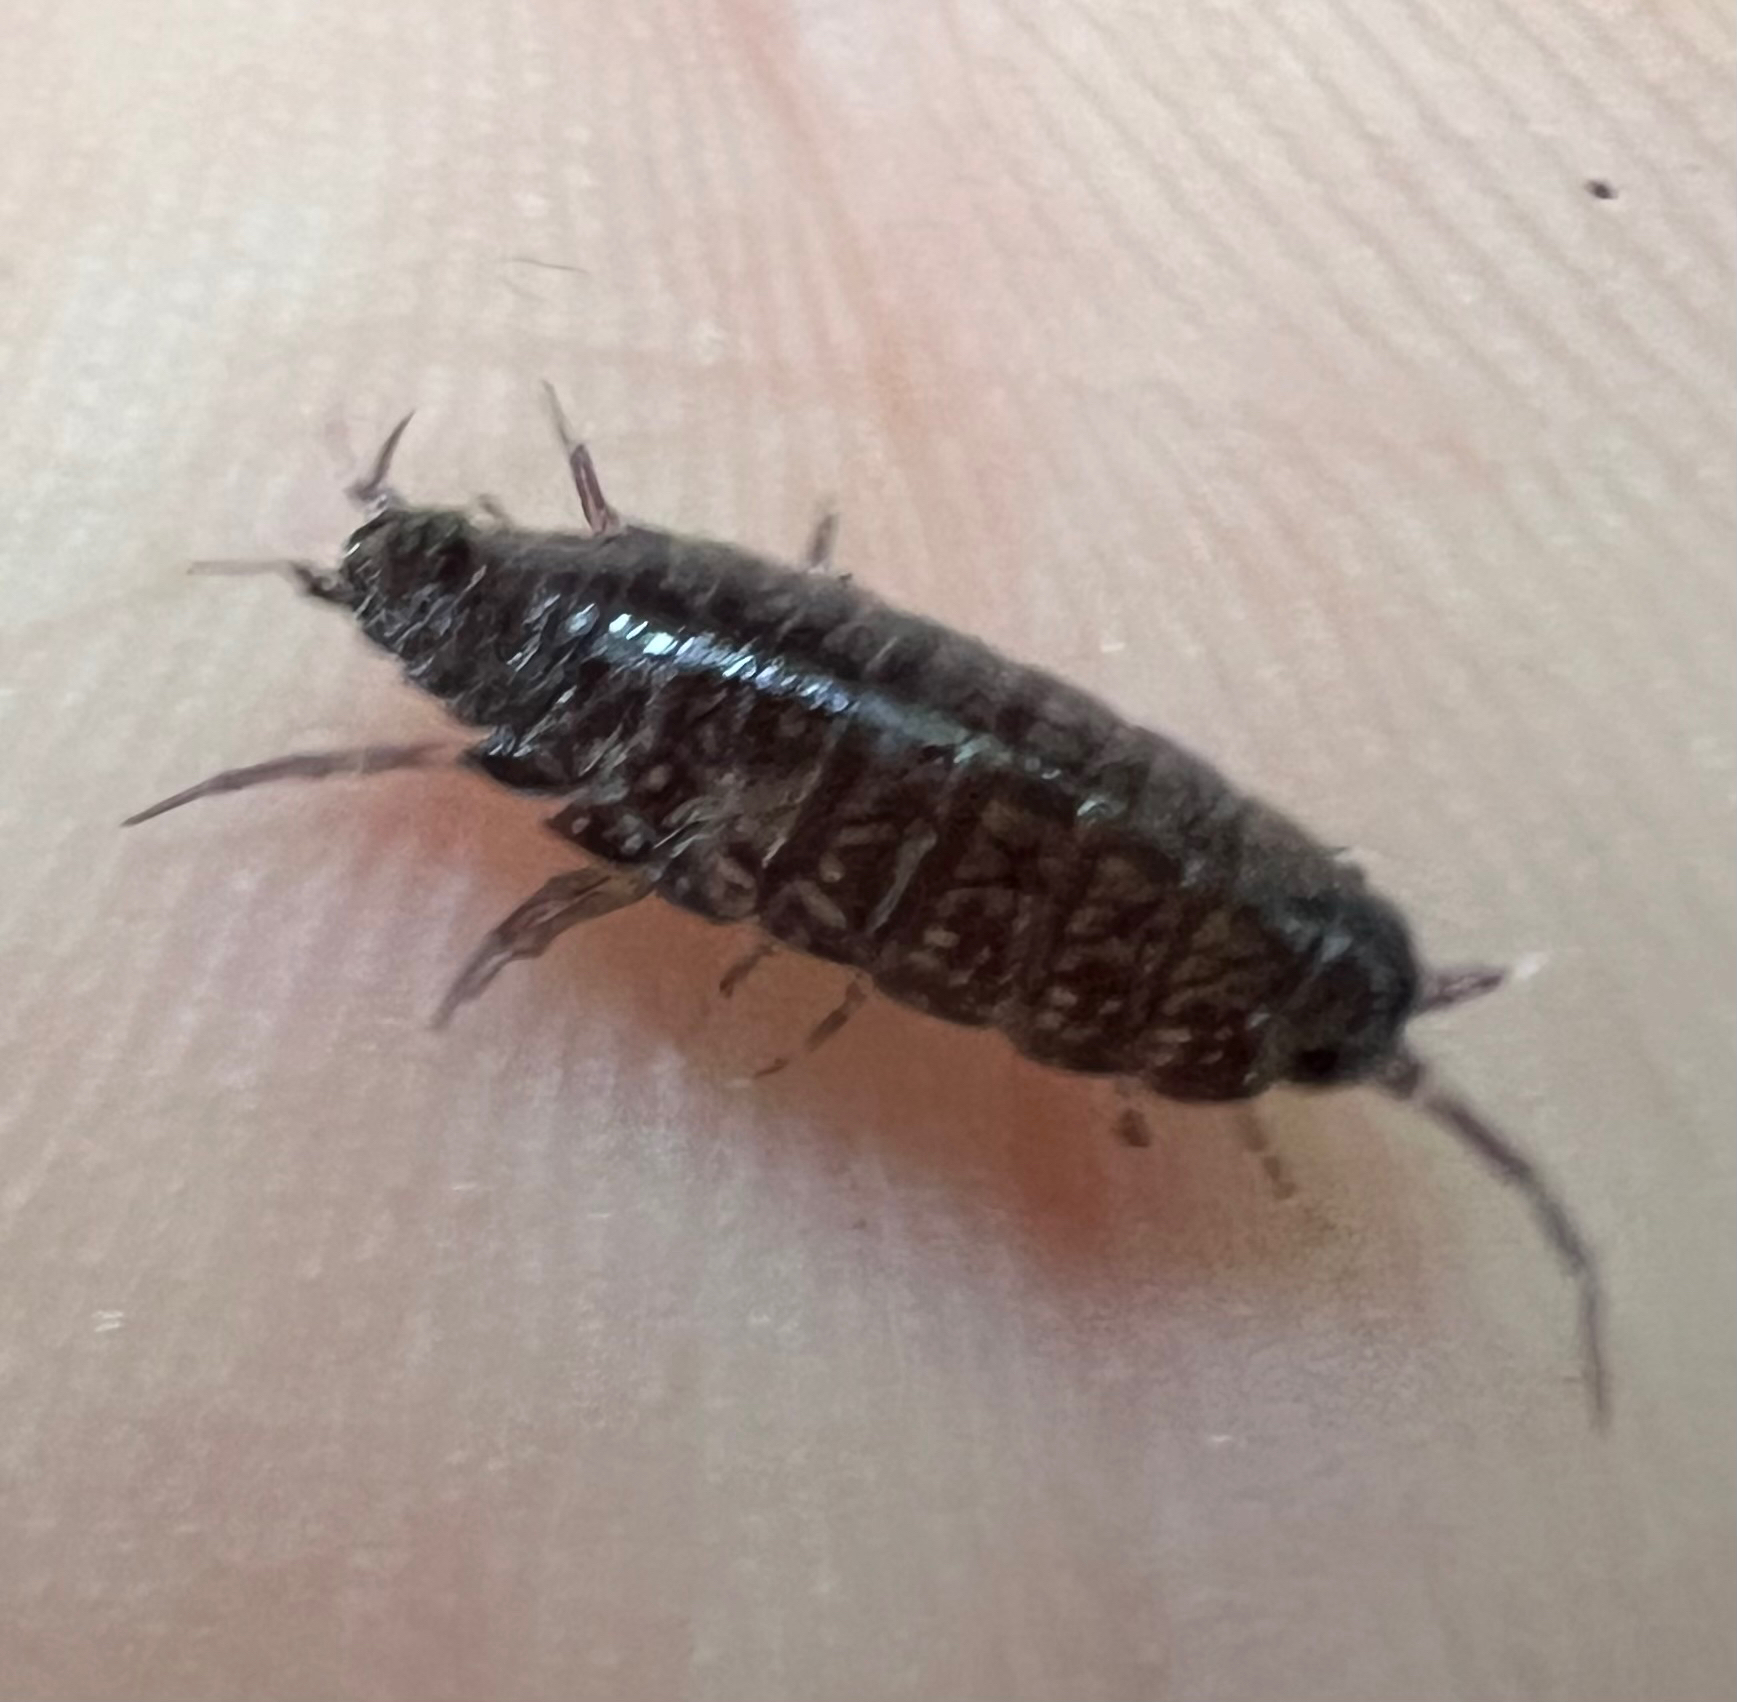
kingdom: Animalia
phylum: Arthropoda
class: Malacostraca
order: Isopoda
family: Ligiidae
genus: Ligidium
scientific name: Ligidium gracile
